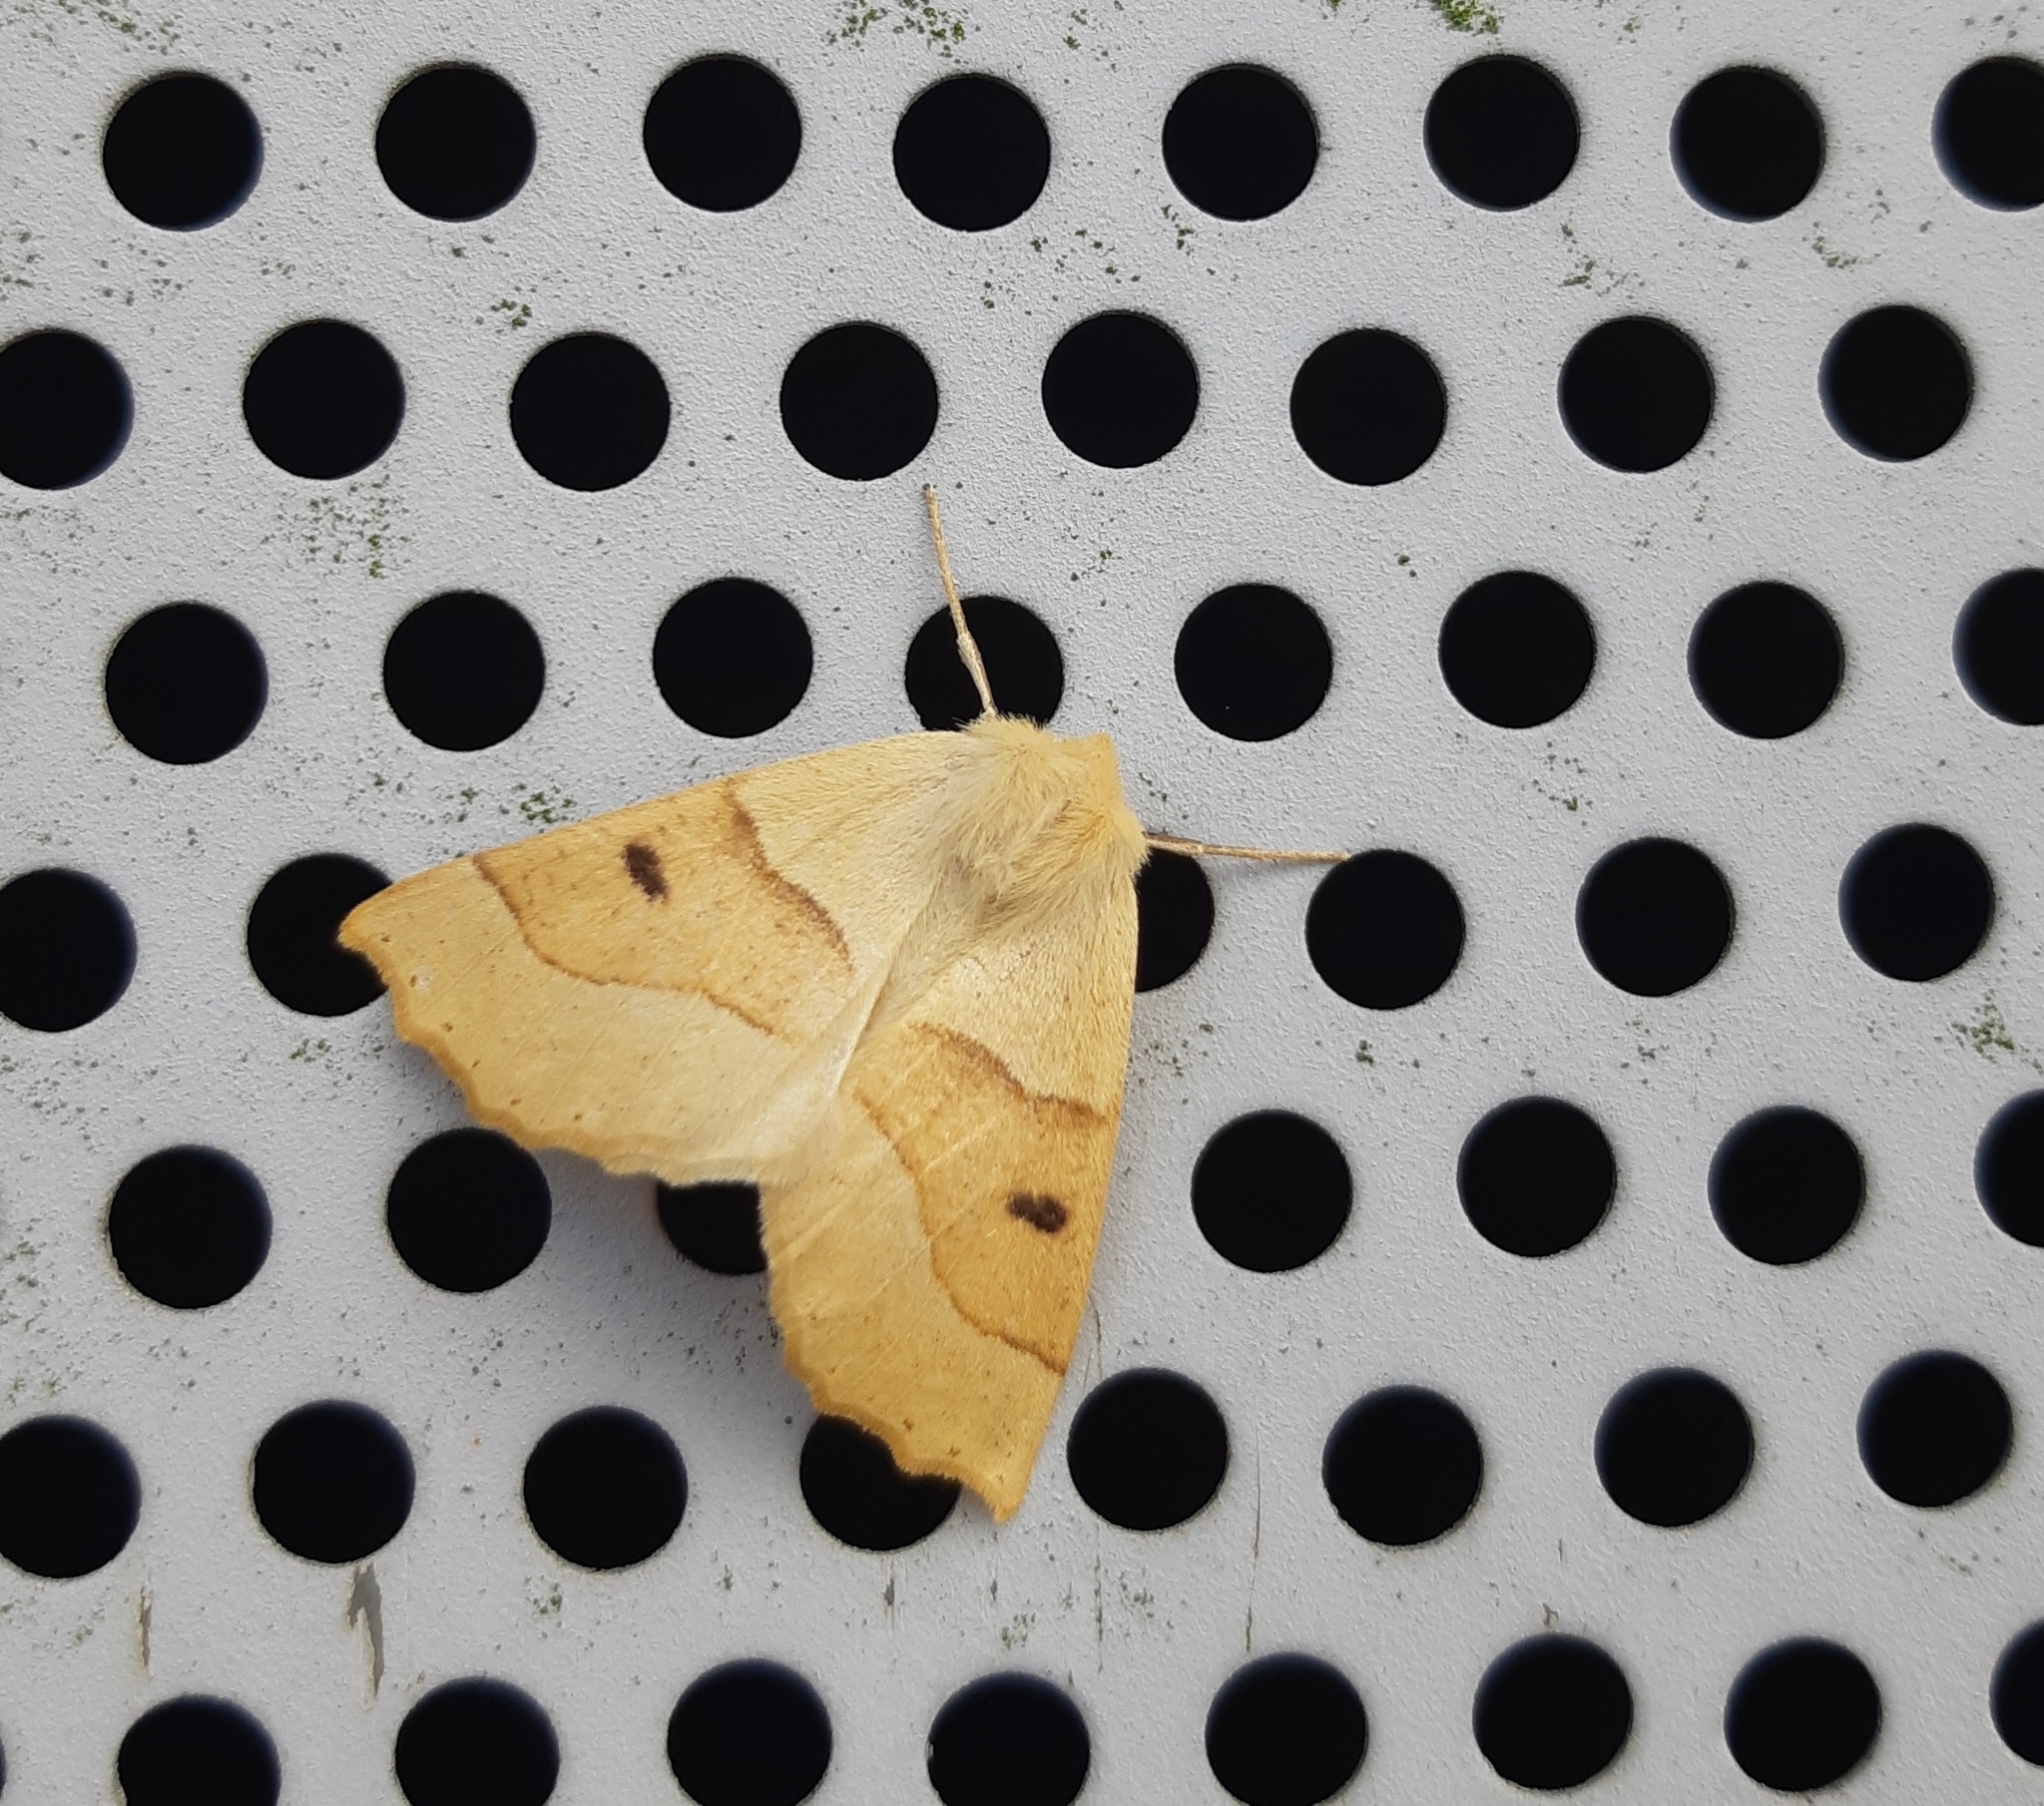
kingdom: Animalia
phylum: Arthropoda
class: Insecta
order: Lepidoptera
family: Geometridae
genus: Crocallis
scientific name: Crocallis elinguaria
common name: Scalloped oak
